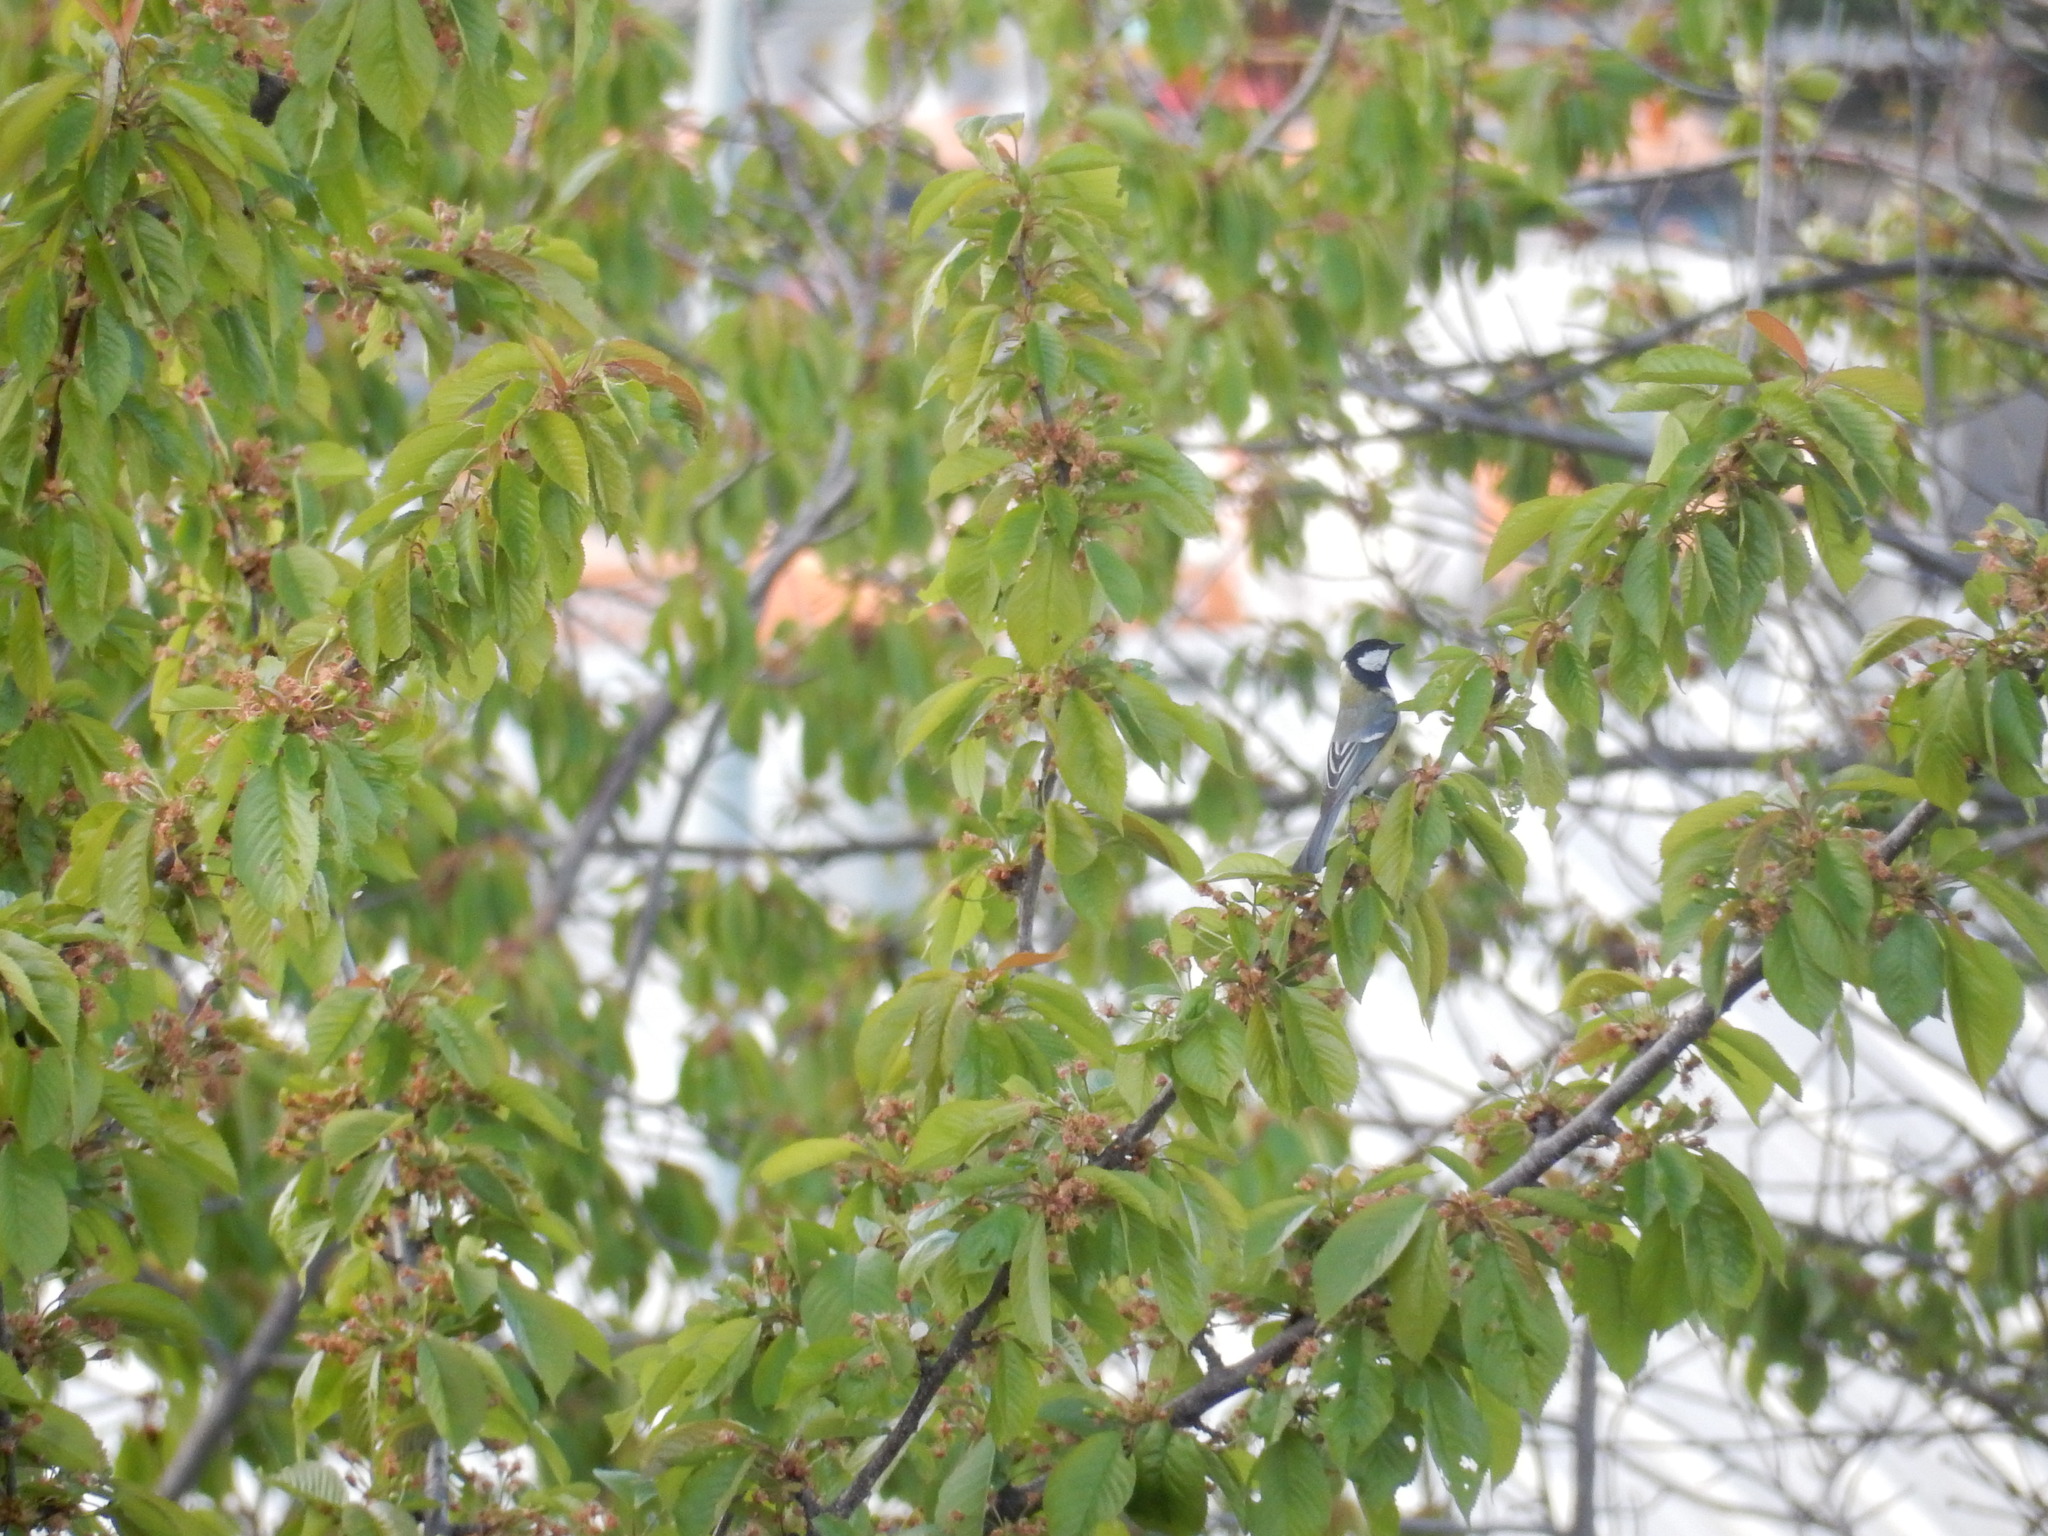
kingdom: Animalia
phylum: Chordata
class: Aves
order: Passeriformes
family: Paridae
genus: Parus
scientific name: Parus major
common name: Great tit
